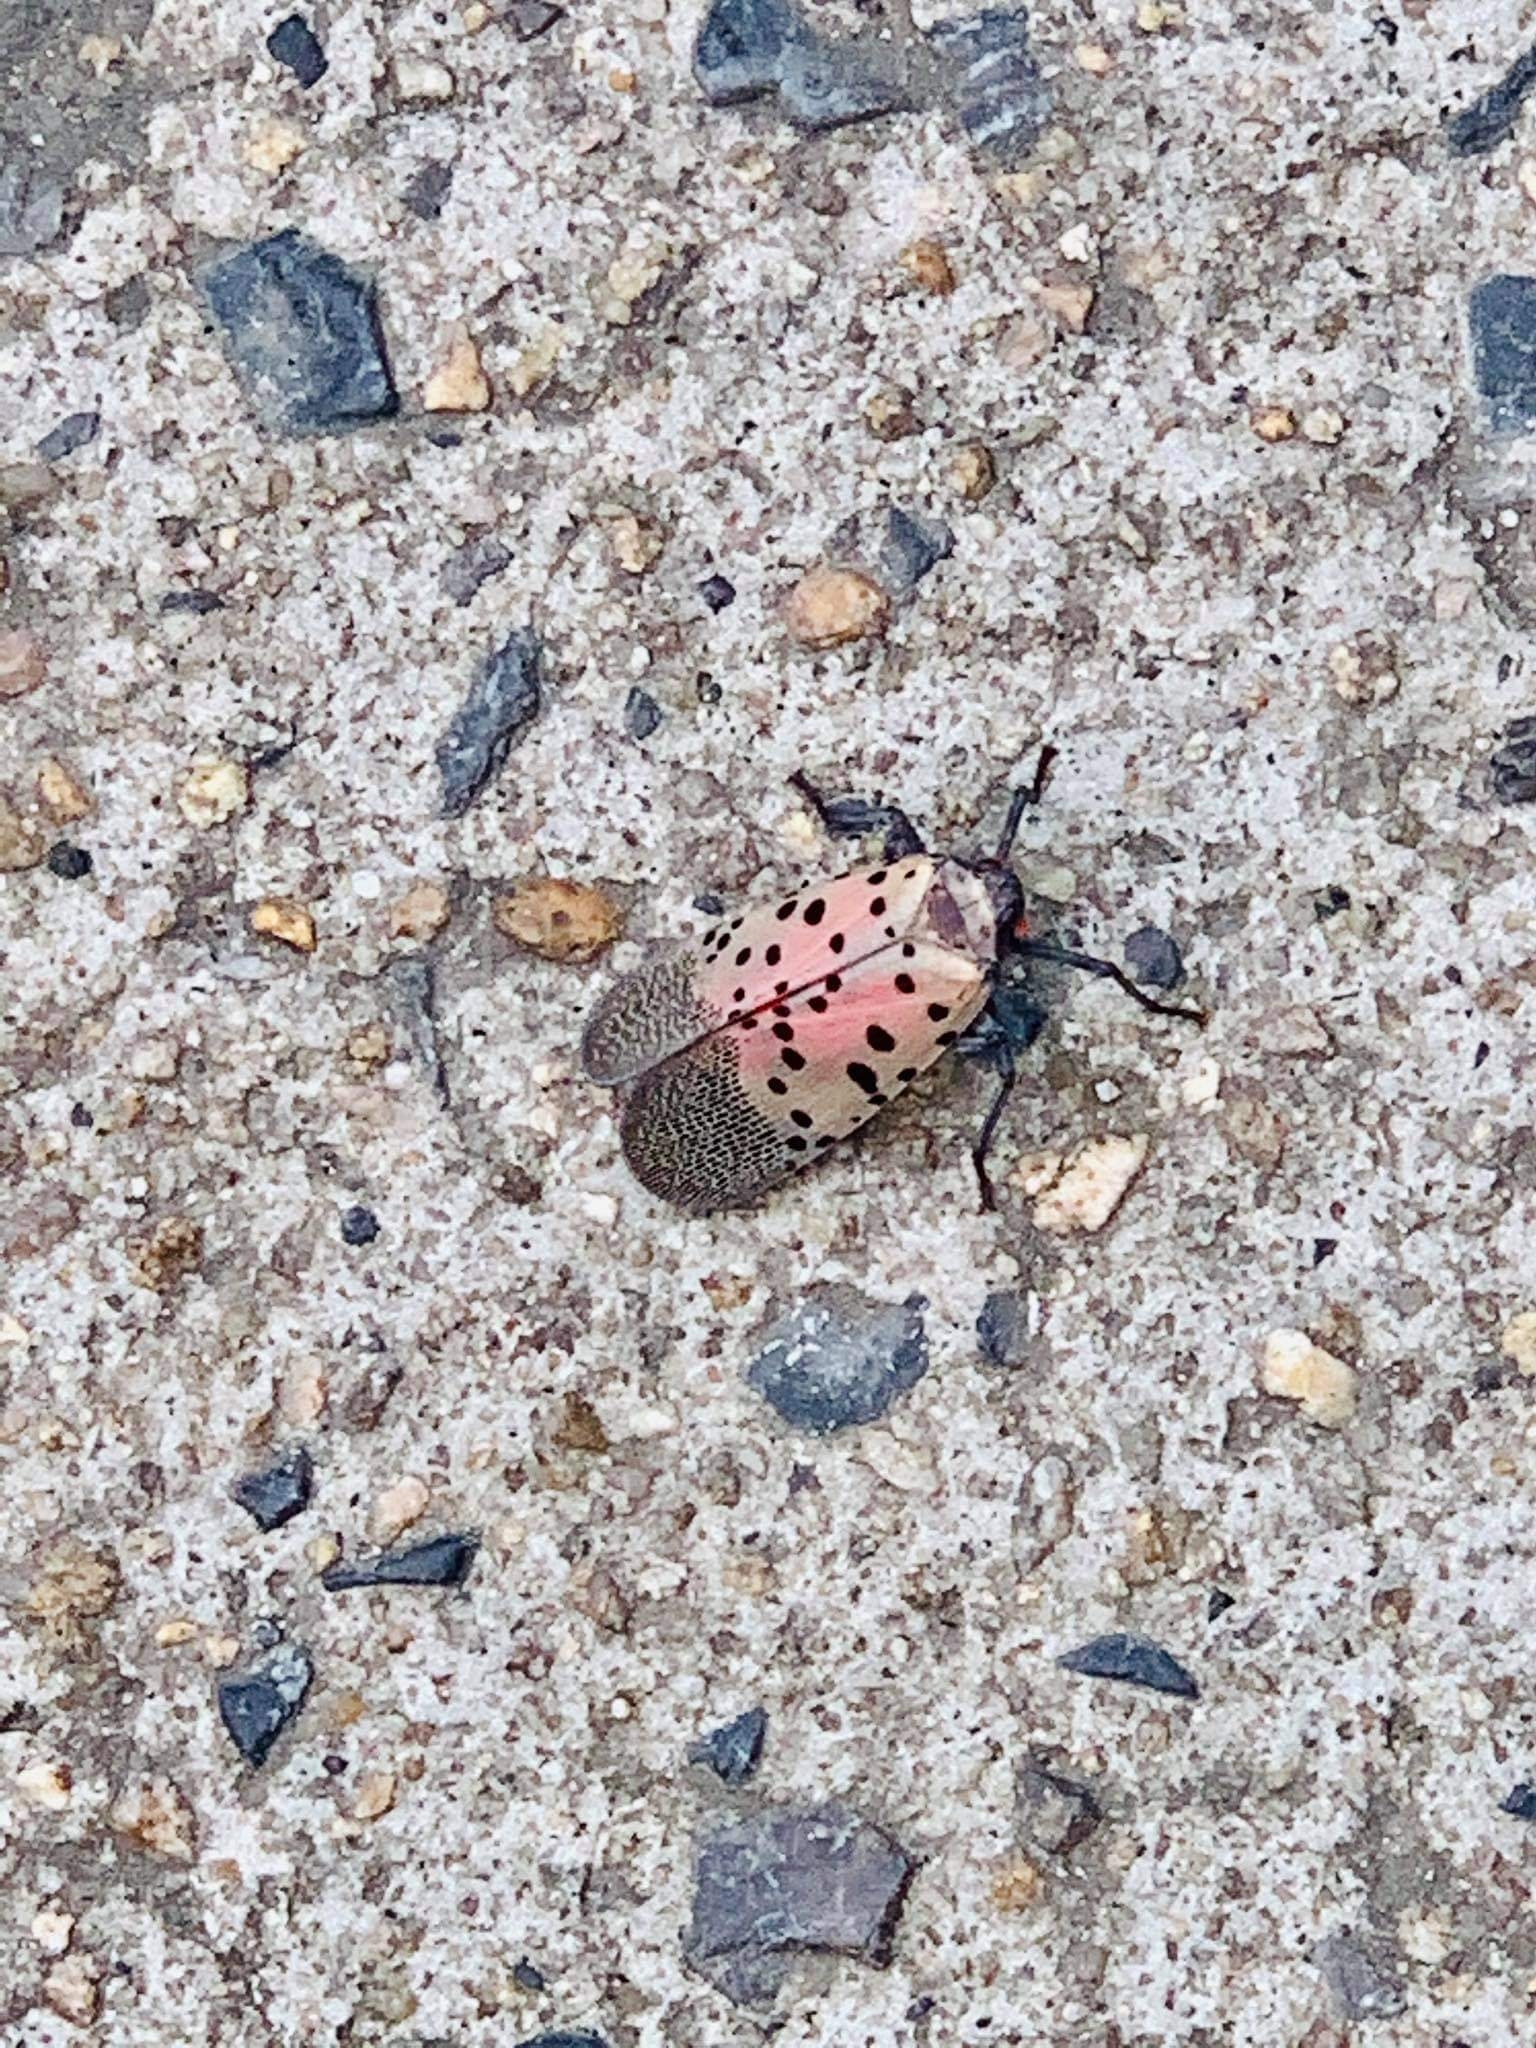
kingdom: Animalia
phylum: Arthropoda
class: Insecta
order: Hemiptera
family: Fulgoridae
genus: Lycorma
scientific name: Lycorma delicatula
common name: Spotted lanternfly
